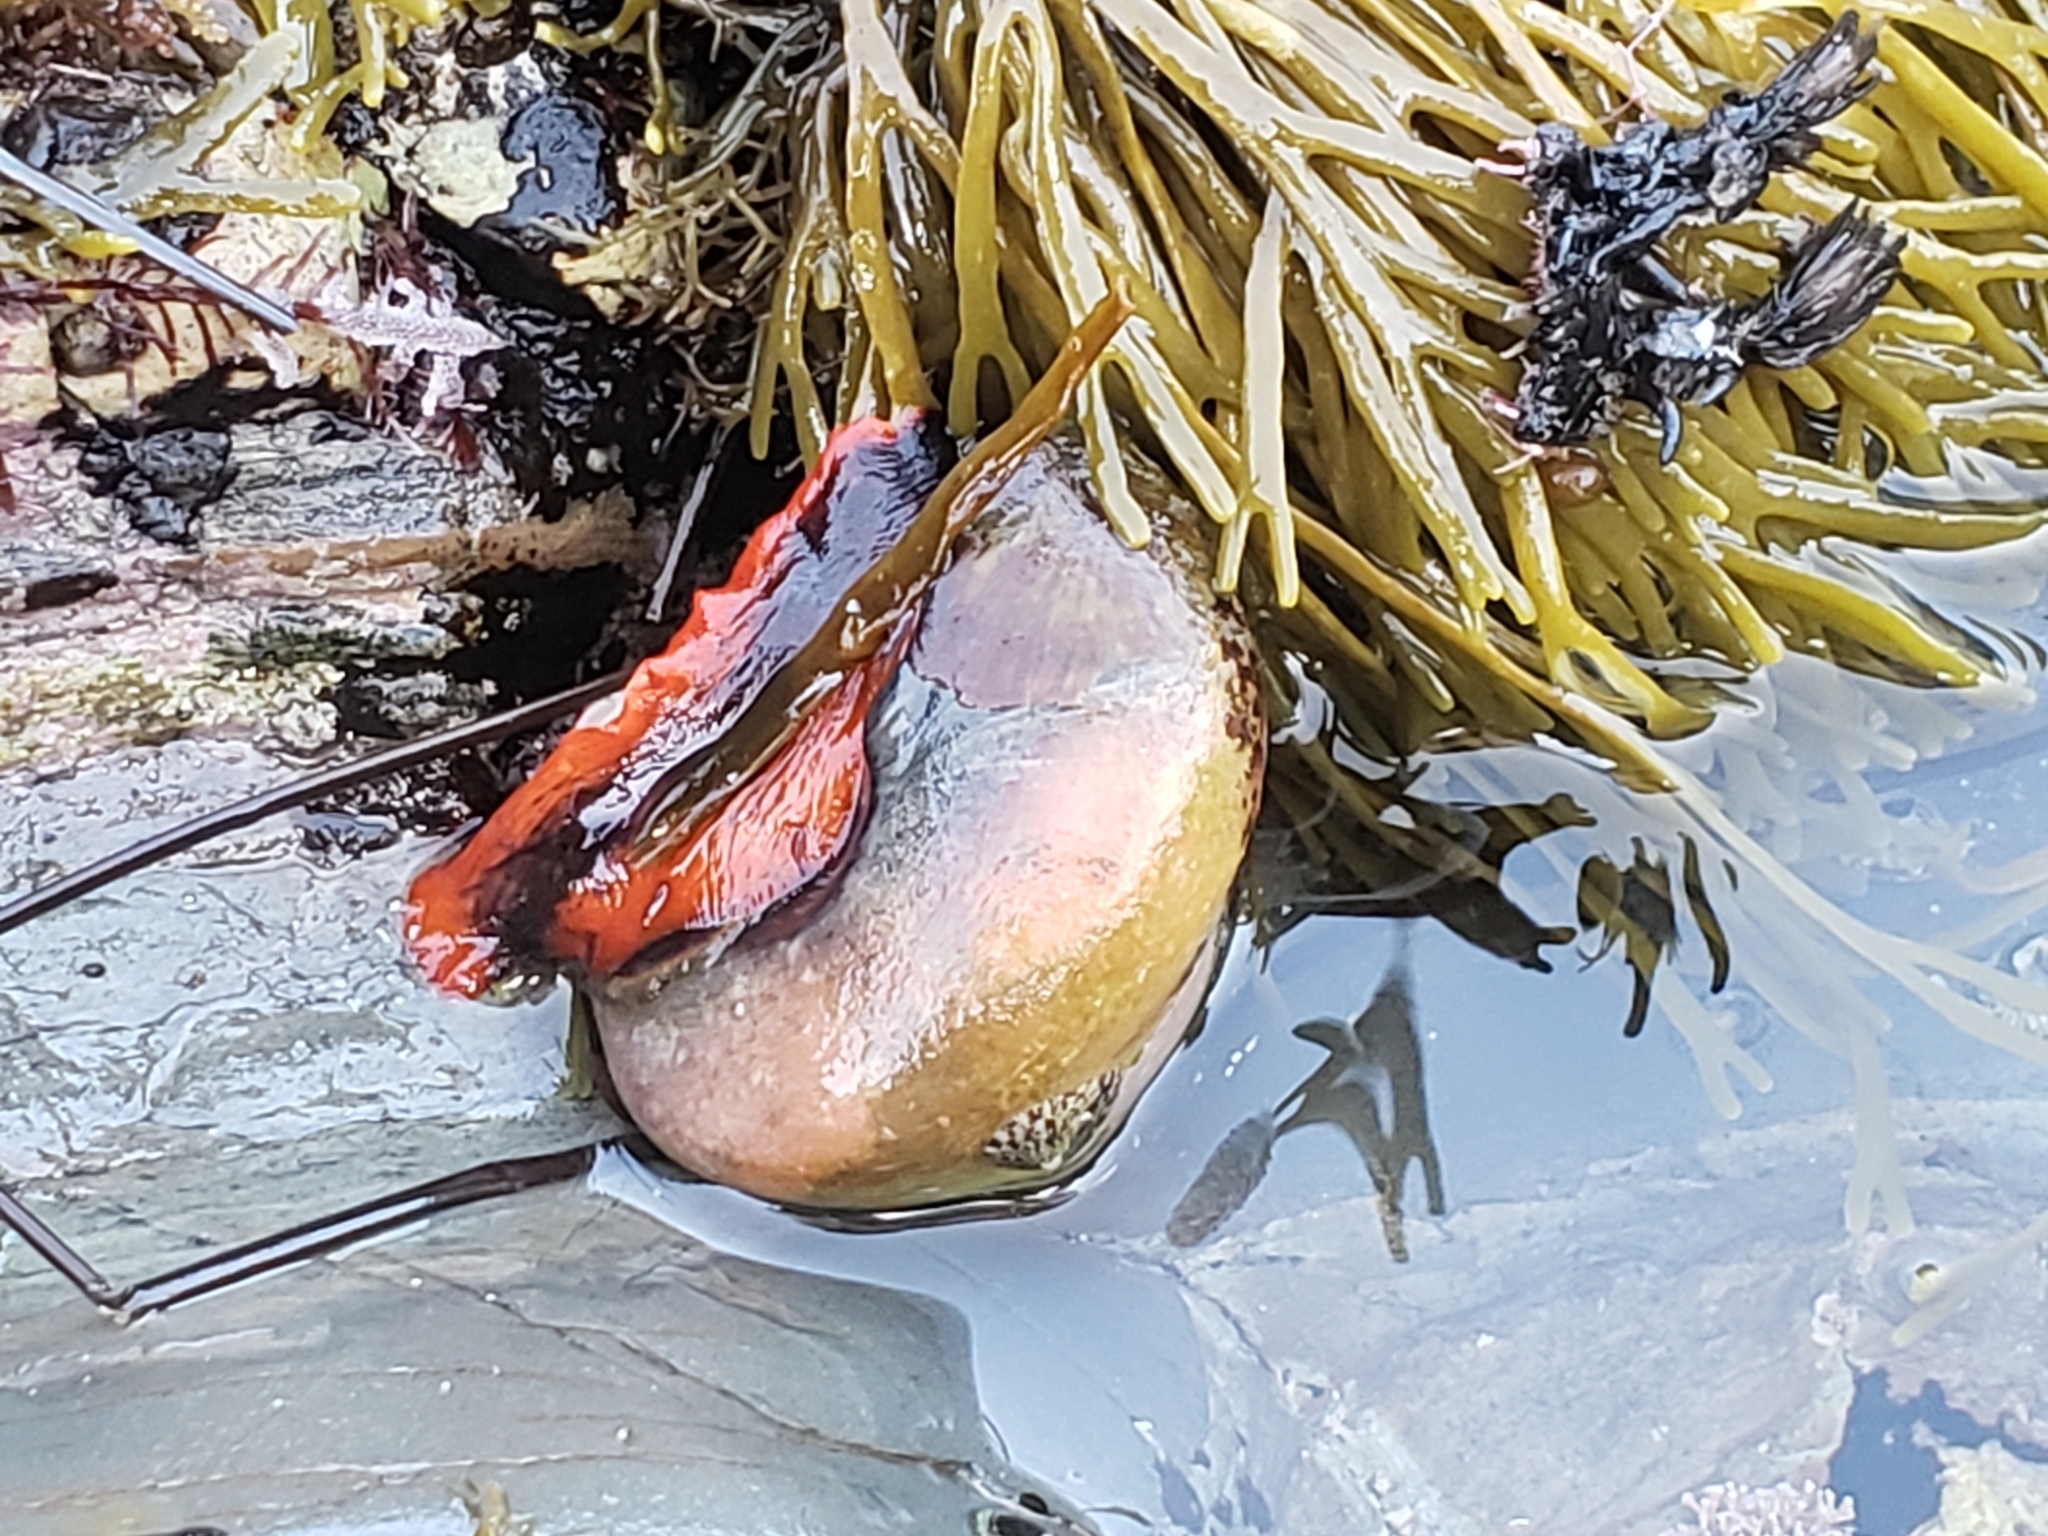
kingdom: Animalia
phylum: Mollusca
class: Gastropoda
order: Trochida
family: Tegulidae
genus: Norrisia
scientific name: Norrisia norrisii
